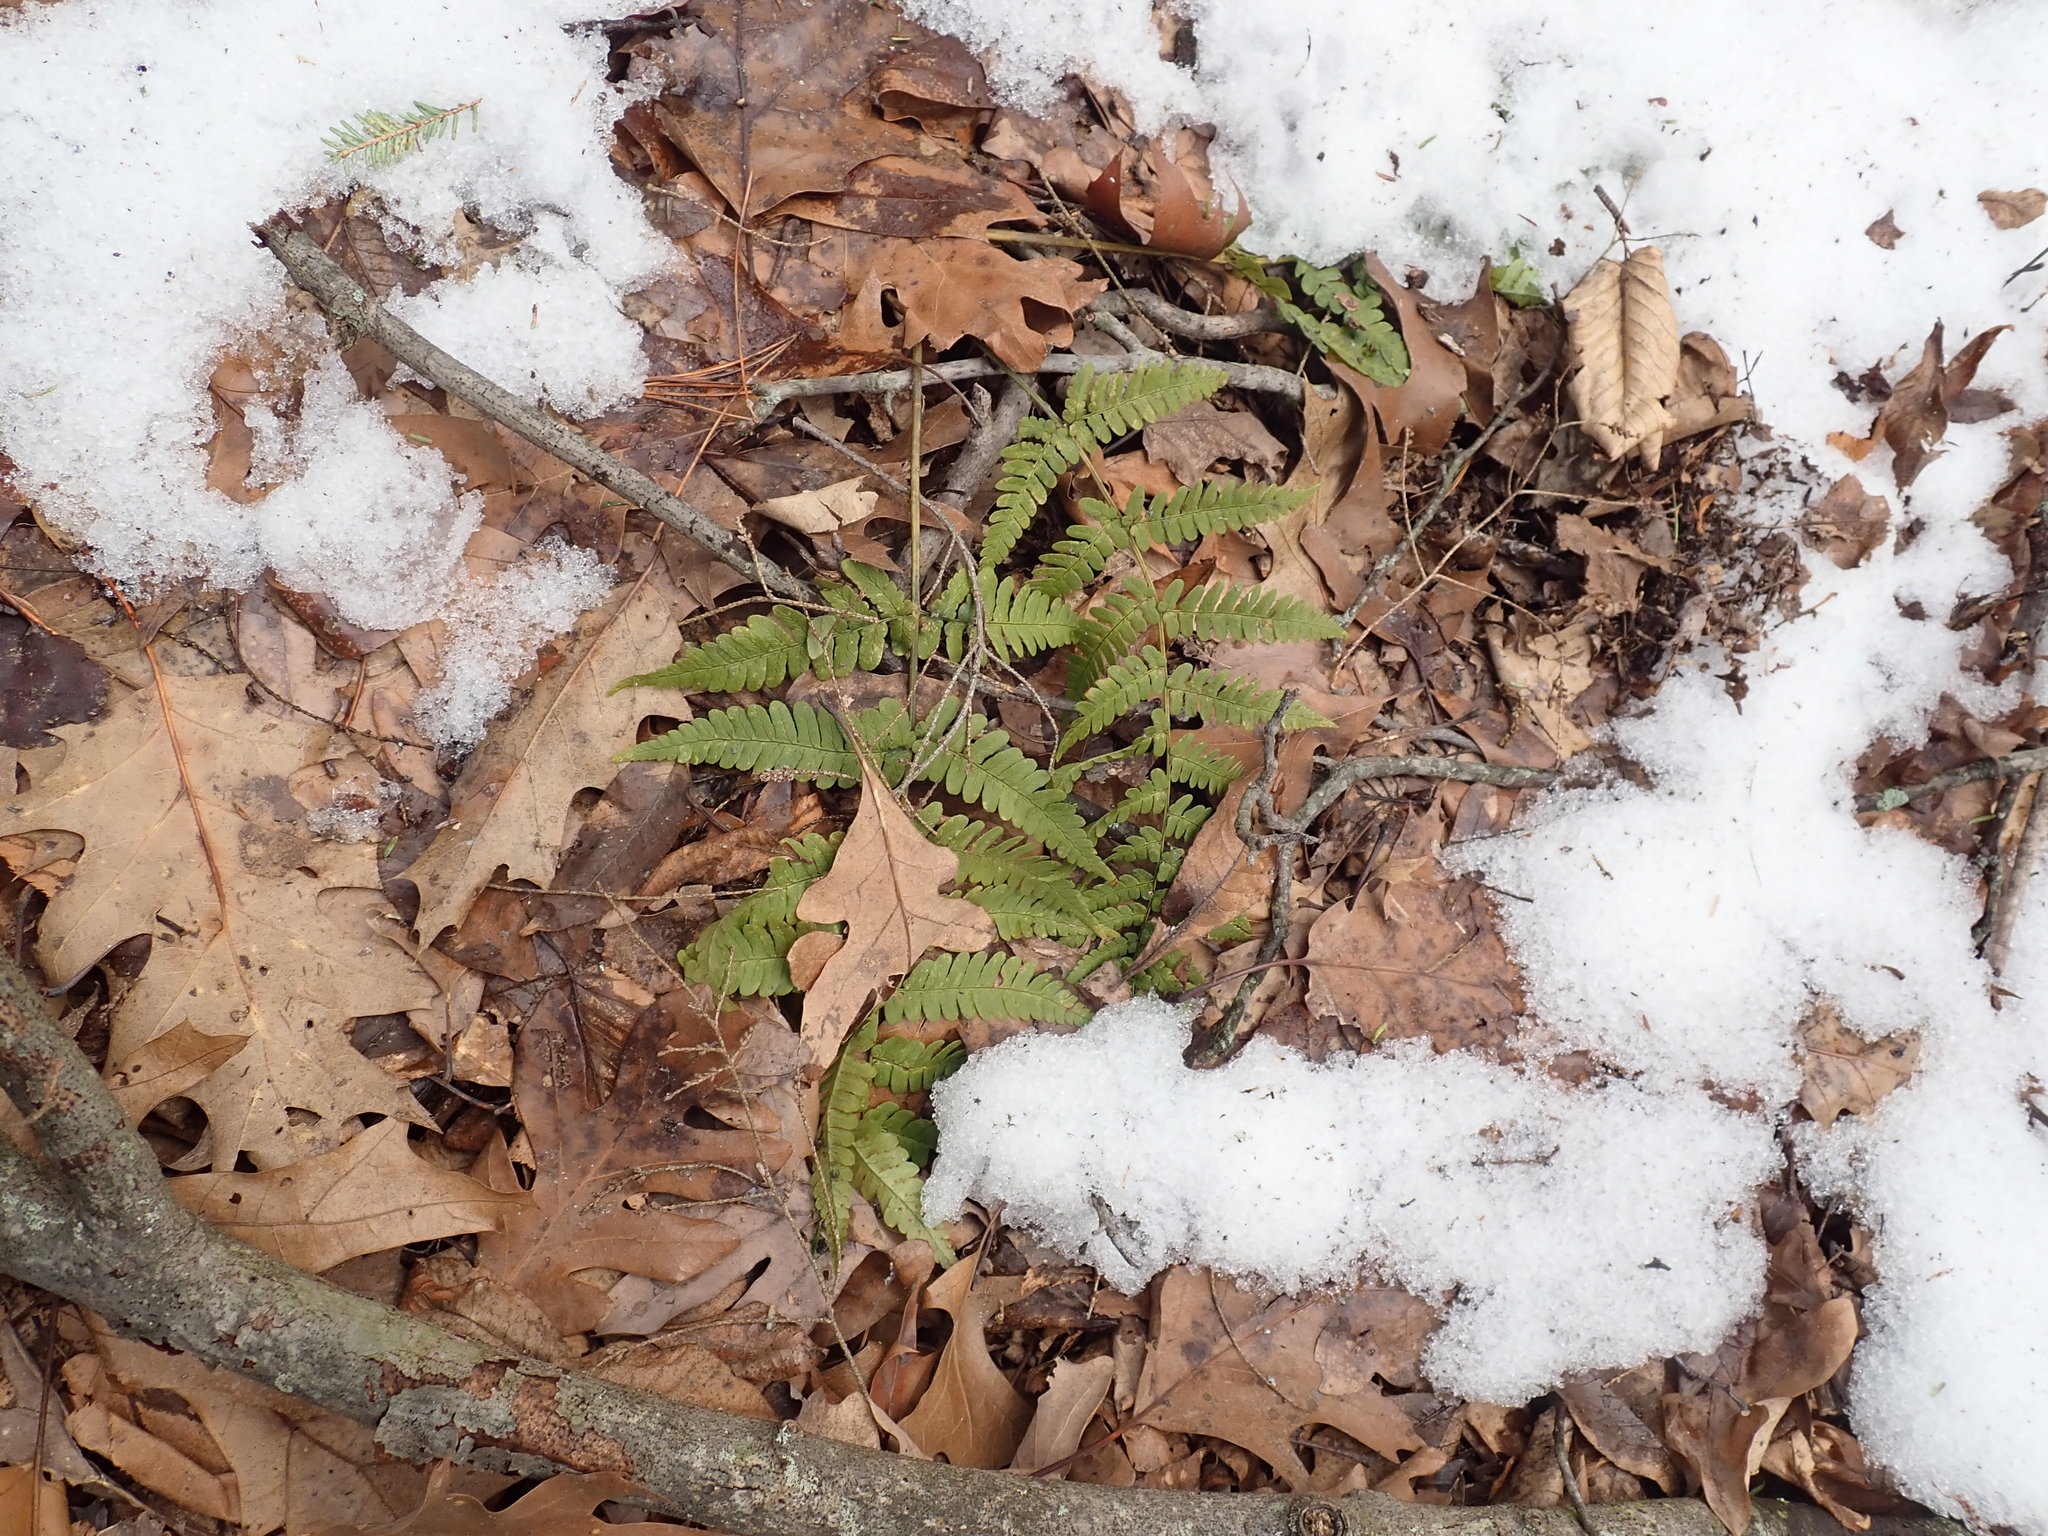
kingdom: Plantae
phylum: Tracheophyta
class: Polypodiopsida
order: Polypodiales
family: Dryopteridaceae
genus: Dryopteris
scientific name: Dryopteris marginalis
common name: Marginal wood fern
